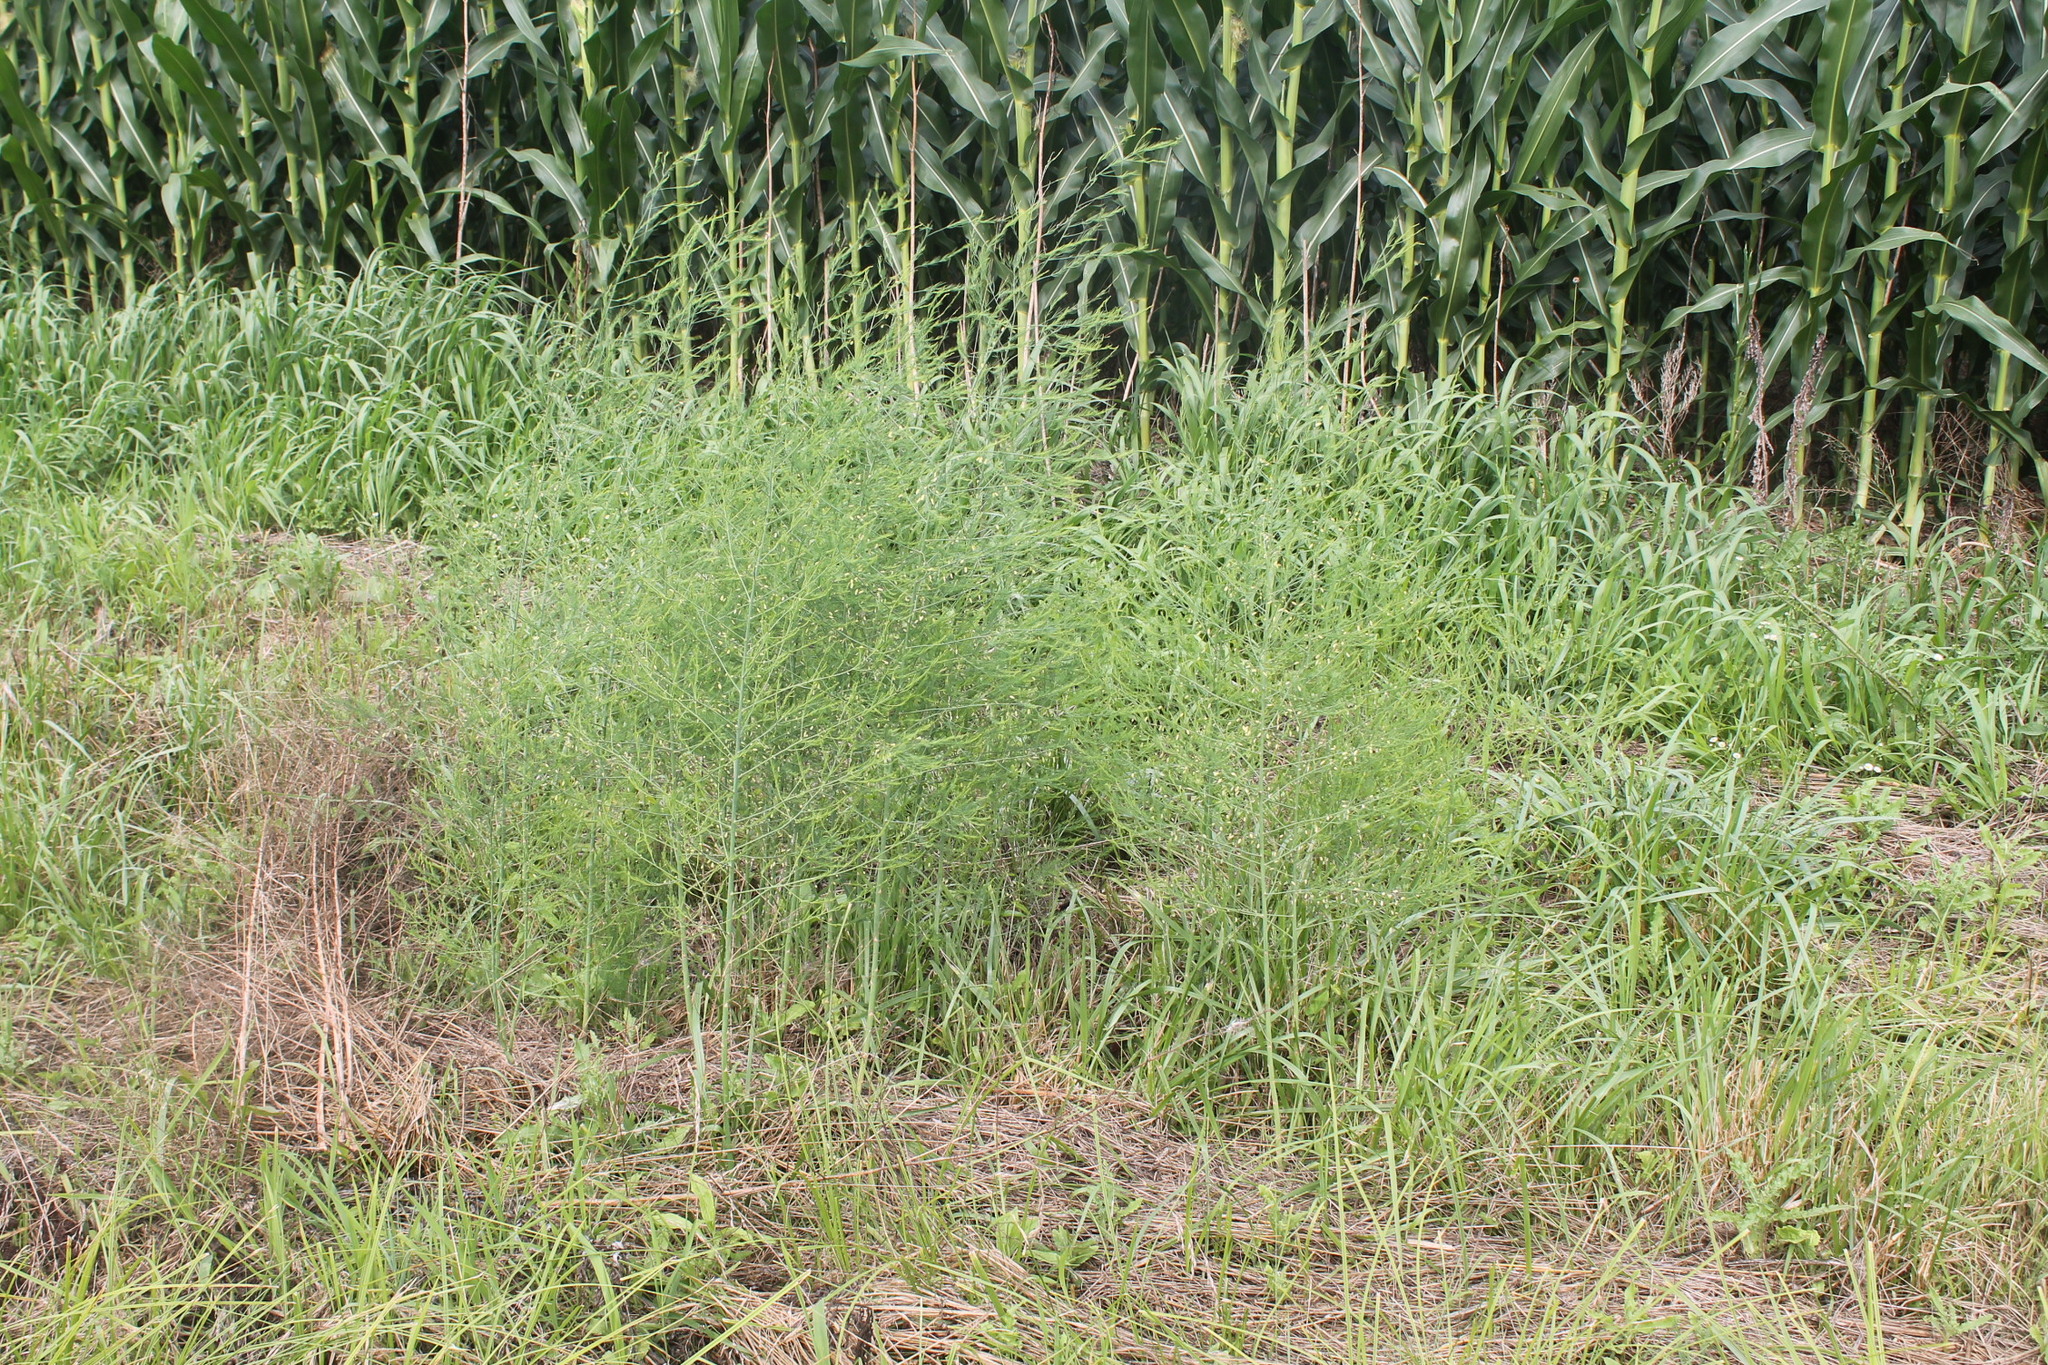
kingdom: Plantae
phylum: Tracheophyta
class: Liliopsida
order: Asparagales
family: Asparagaceae
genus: Asparagus
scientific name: Asparagus officinalis
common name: Garden asparagus
